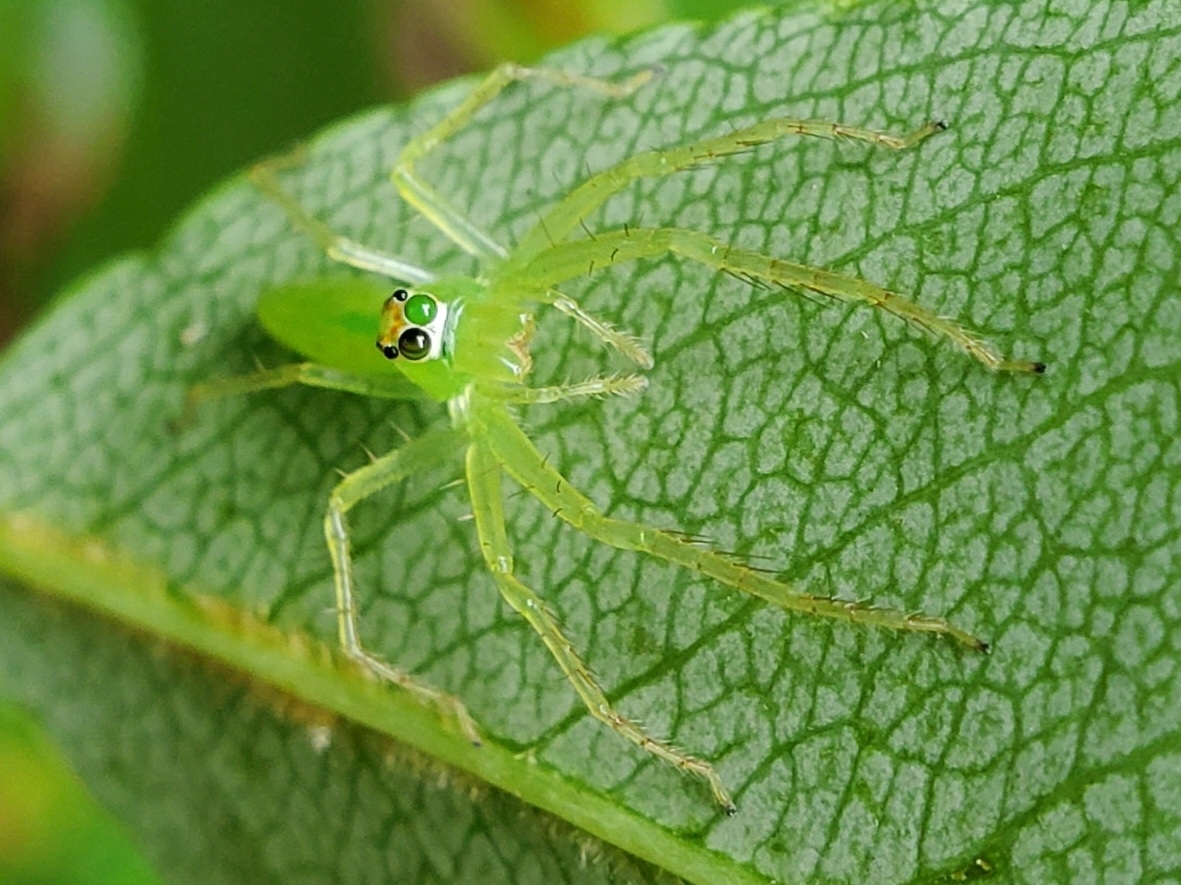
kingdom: Animalia
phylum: Arthropoda
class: Arachnida
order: Araneae
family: Salticidae
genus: Lyssomanes
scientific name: Lyssomanes viridis
